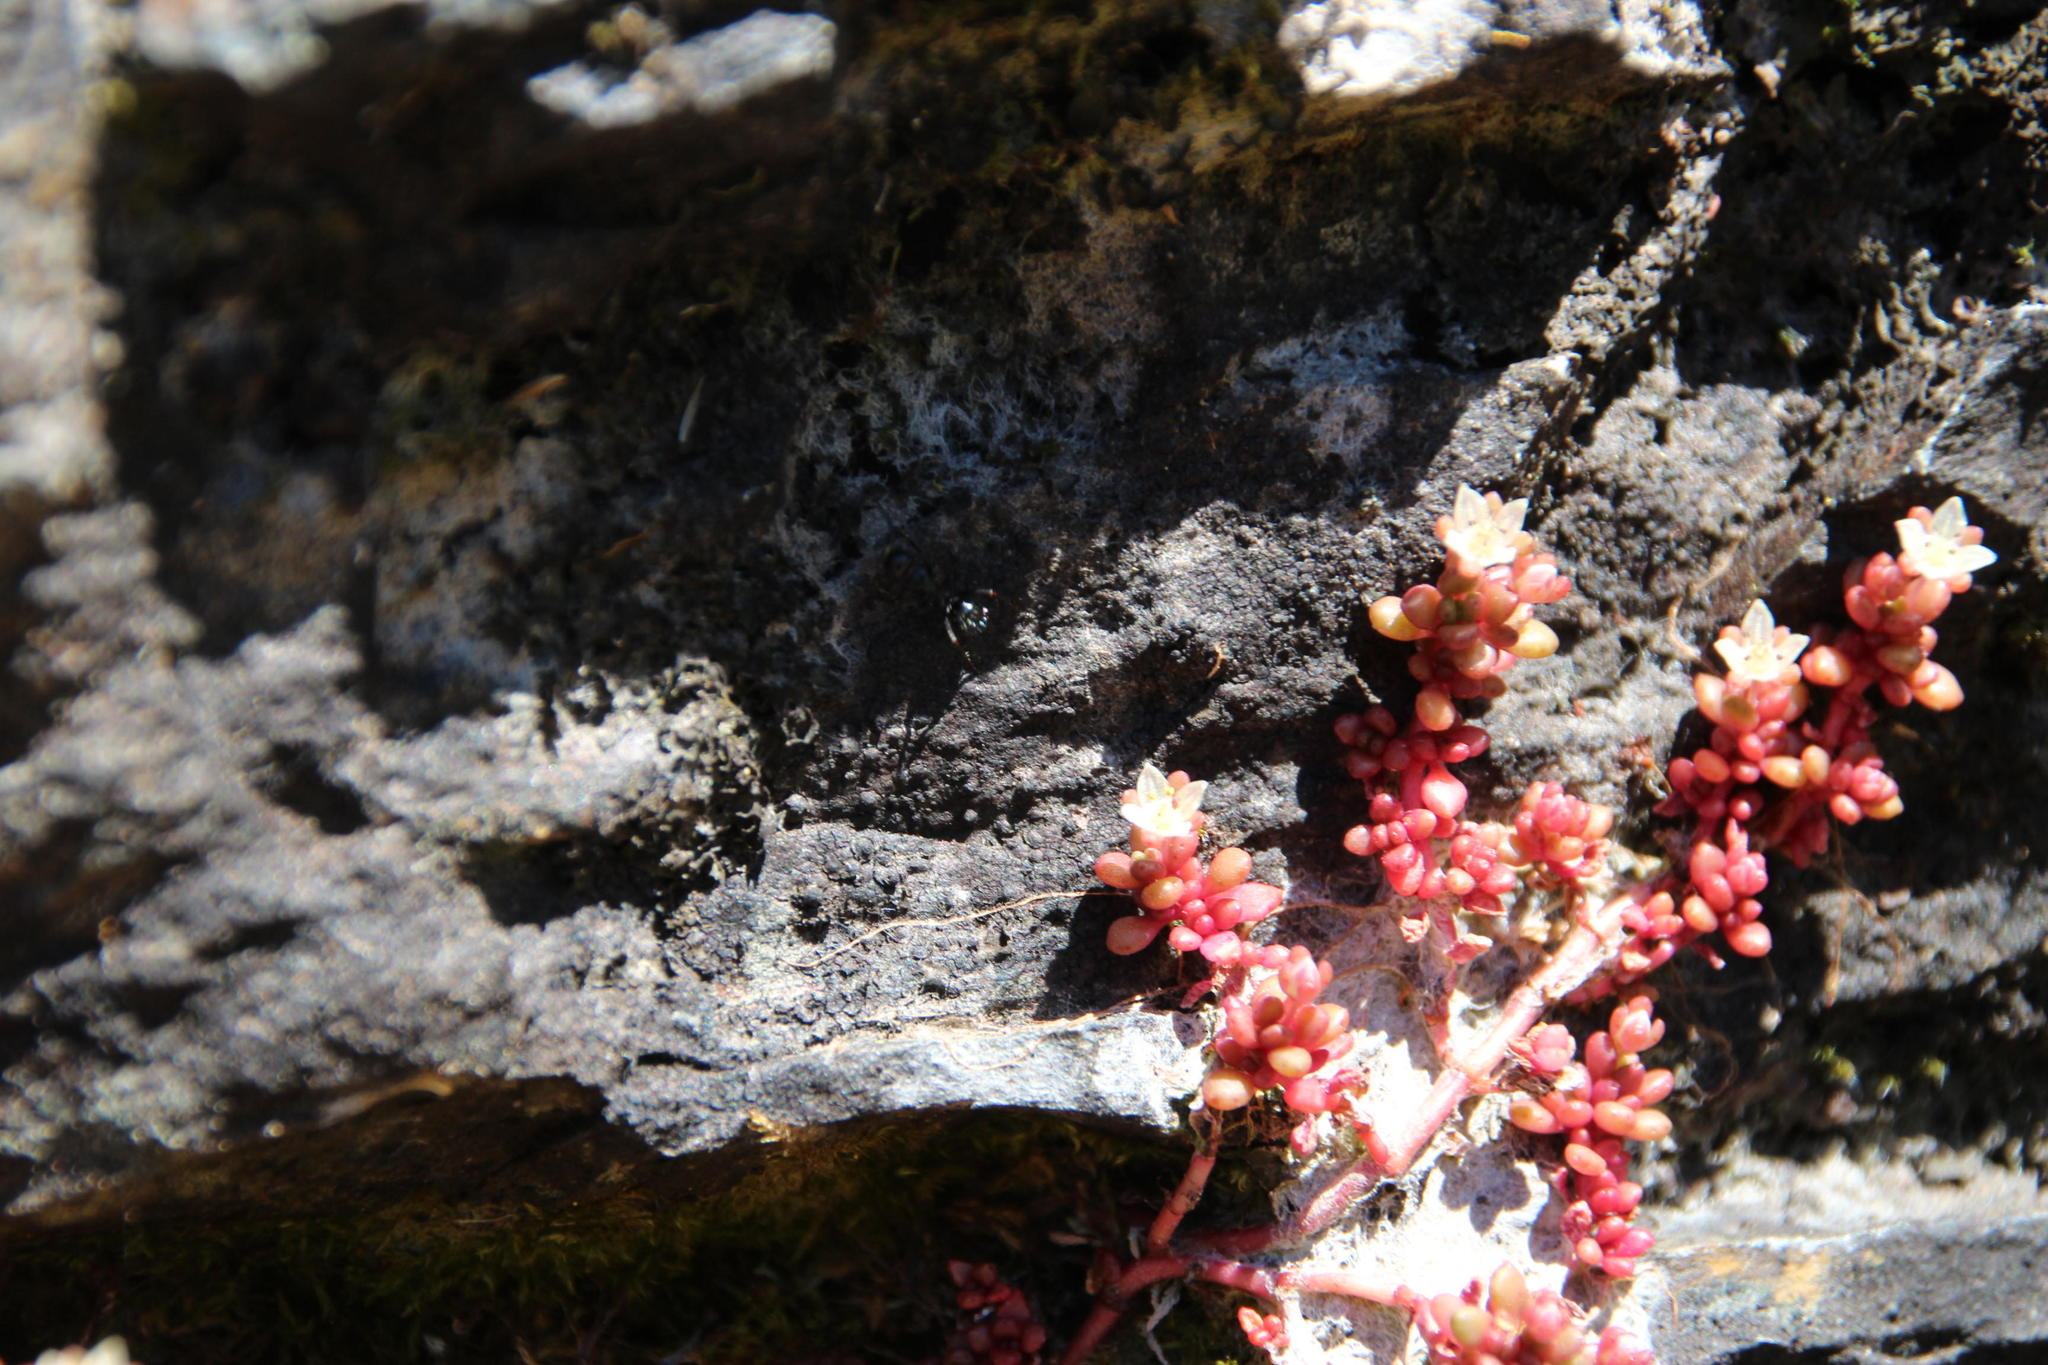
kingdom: Animalia
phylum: Arthropoda
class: Insecta
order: Hymenoptera
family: Formicidae
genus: Camponotus
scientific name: Camponotus niveosetosus
